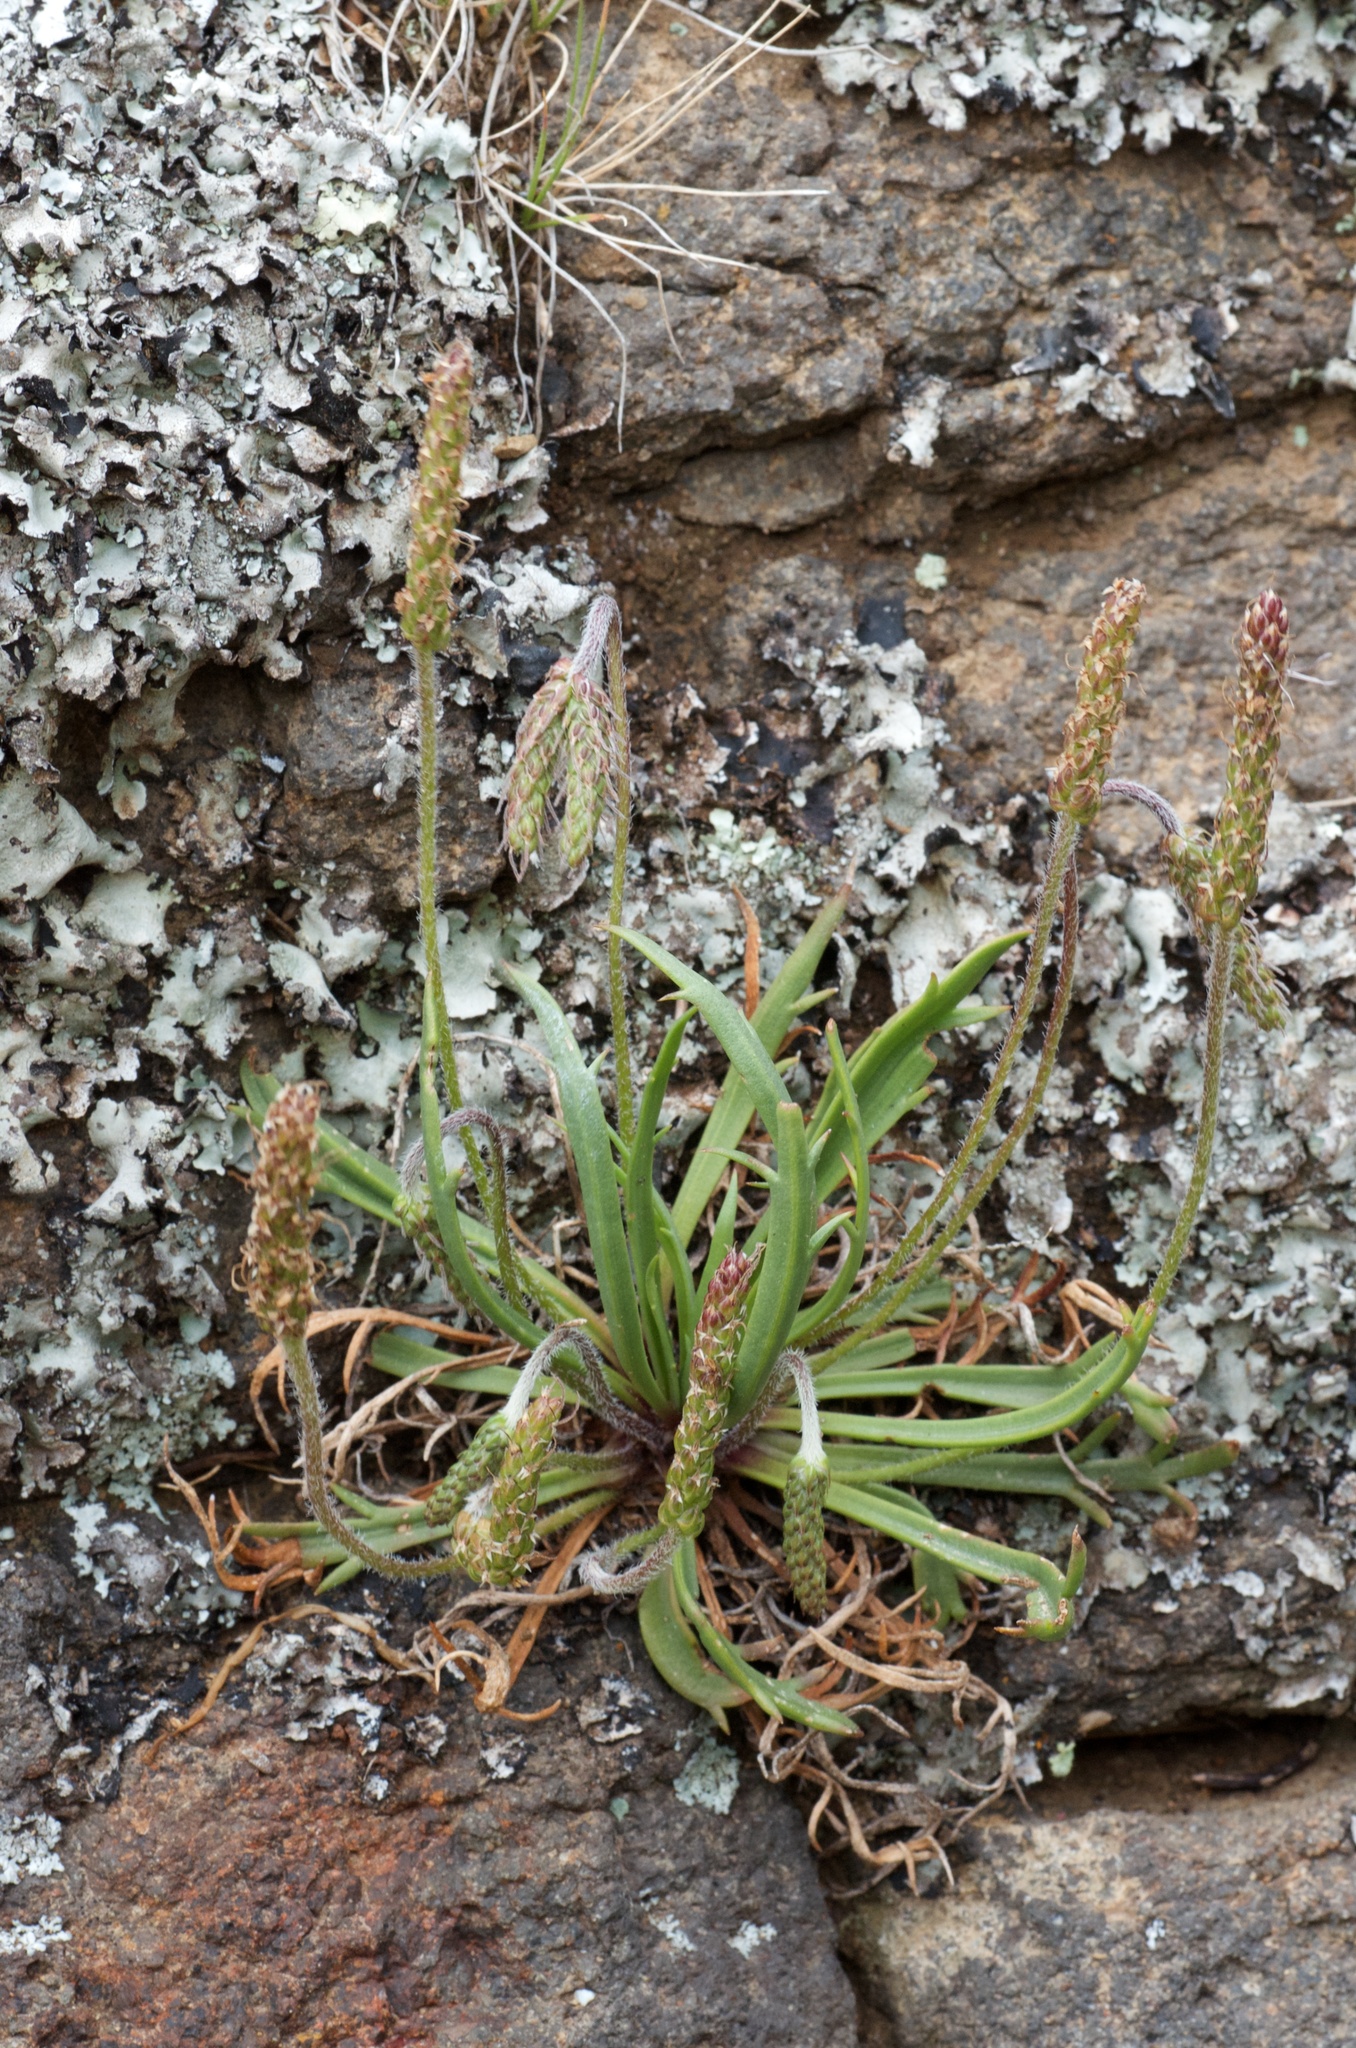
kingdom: Plantae
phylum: Tracheophyta
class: Magnoliopsida
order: Lamiales
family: Plantaginaceae
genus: Plantago
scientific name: Plantago coronopus
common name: Buck's-horn plantain
